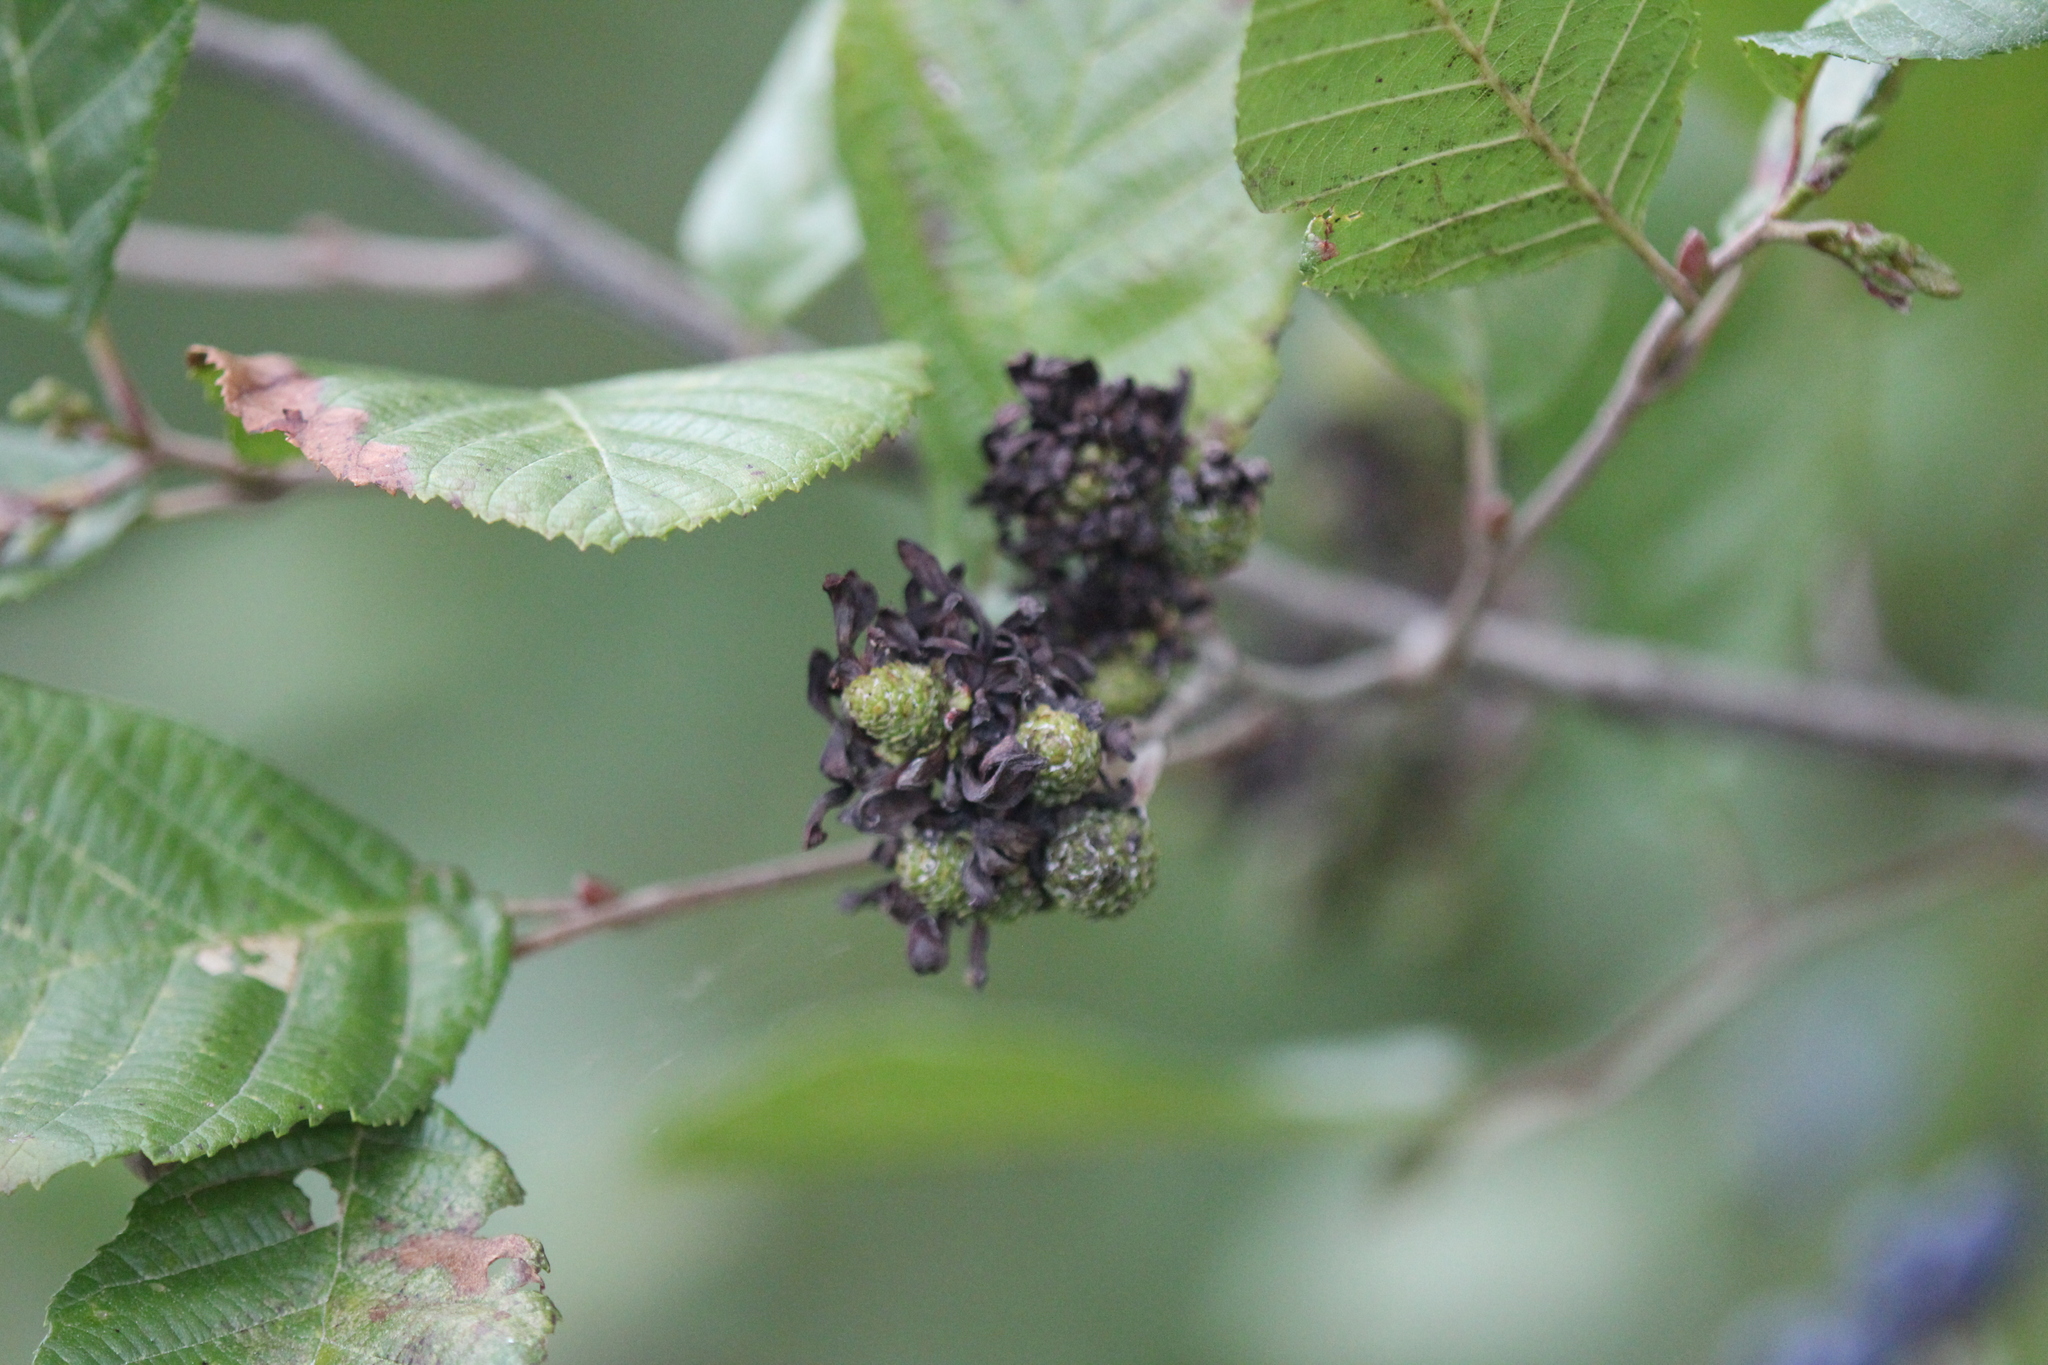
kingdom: Fungi
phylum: Ascomycota
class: Taphrinomycetes
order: Taphrinales
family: Taphrinaceae
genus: Taphrina
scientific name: Taphrina robinsoniana
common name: Eastern american alder tongue gall fungus
